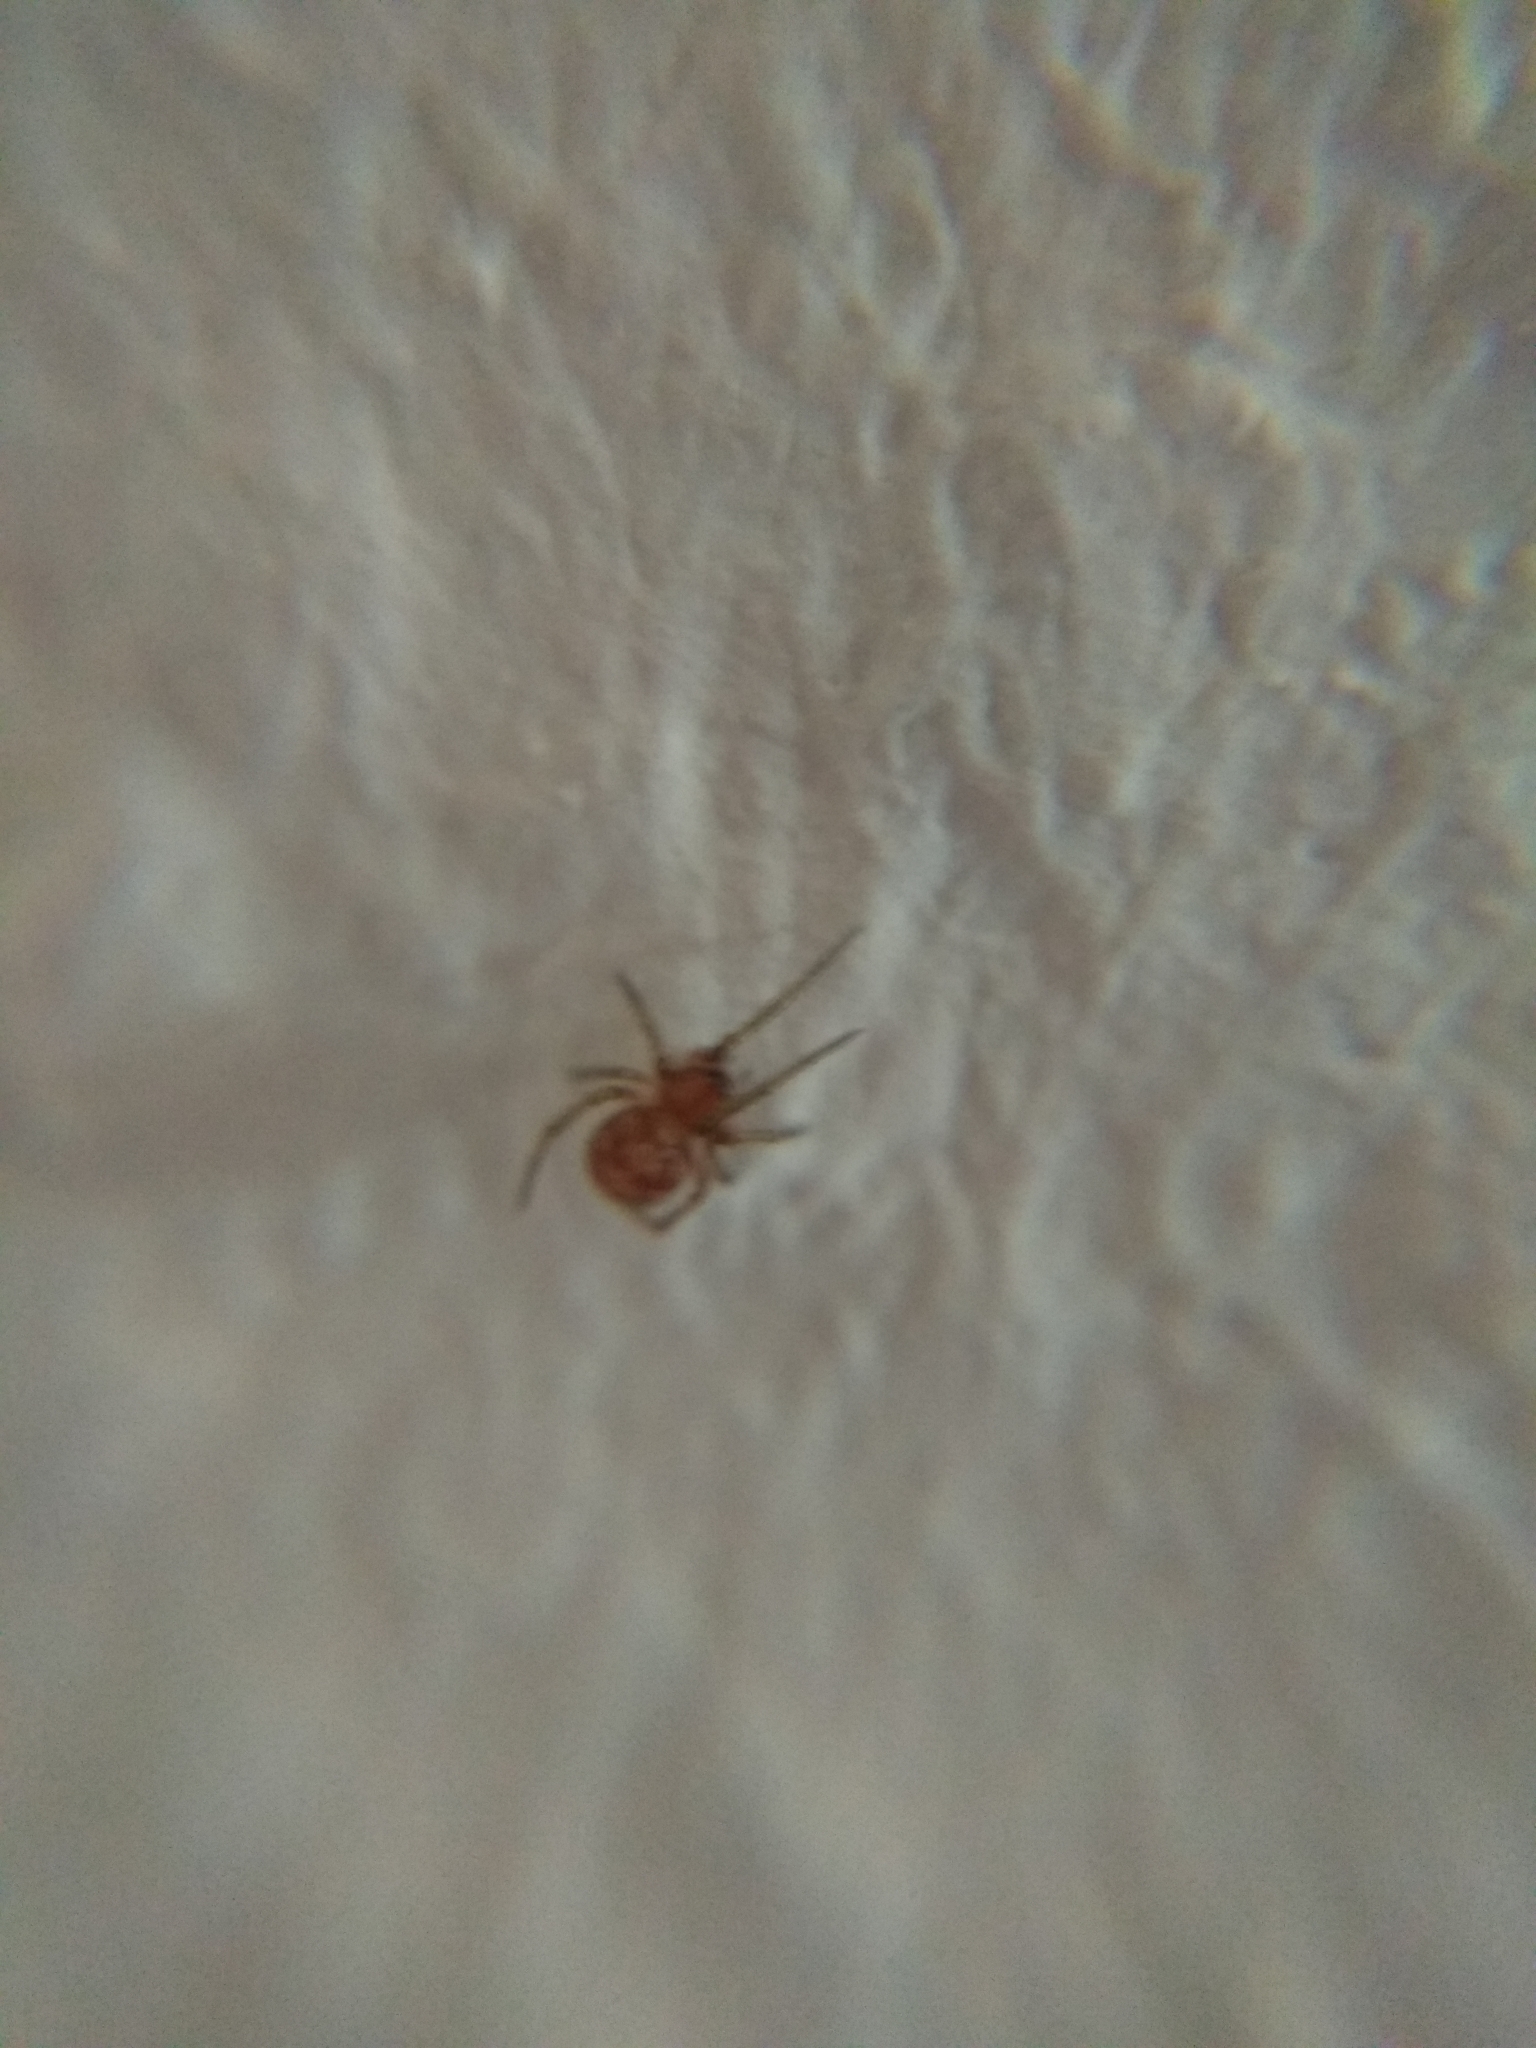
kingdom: Animalia
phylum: Arthropoda
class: Arachnida
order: Araneae
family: Theridiidae
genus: Steatoda
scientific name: Steatoda triangulosa
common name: Triangulate bud spider
